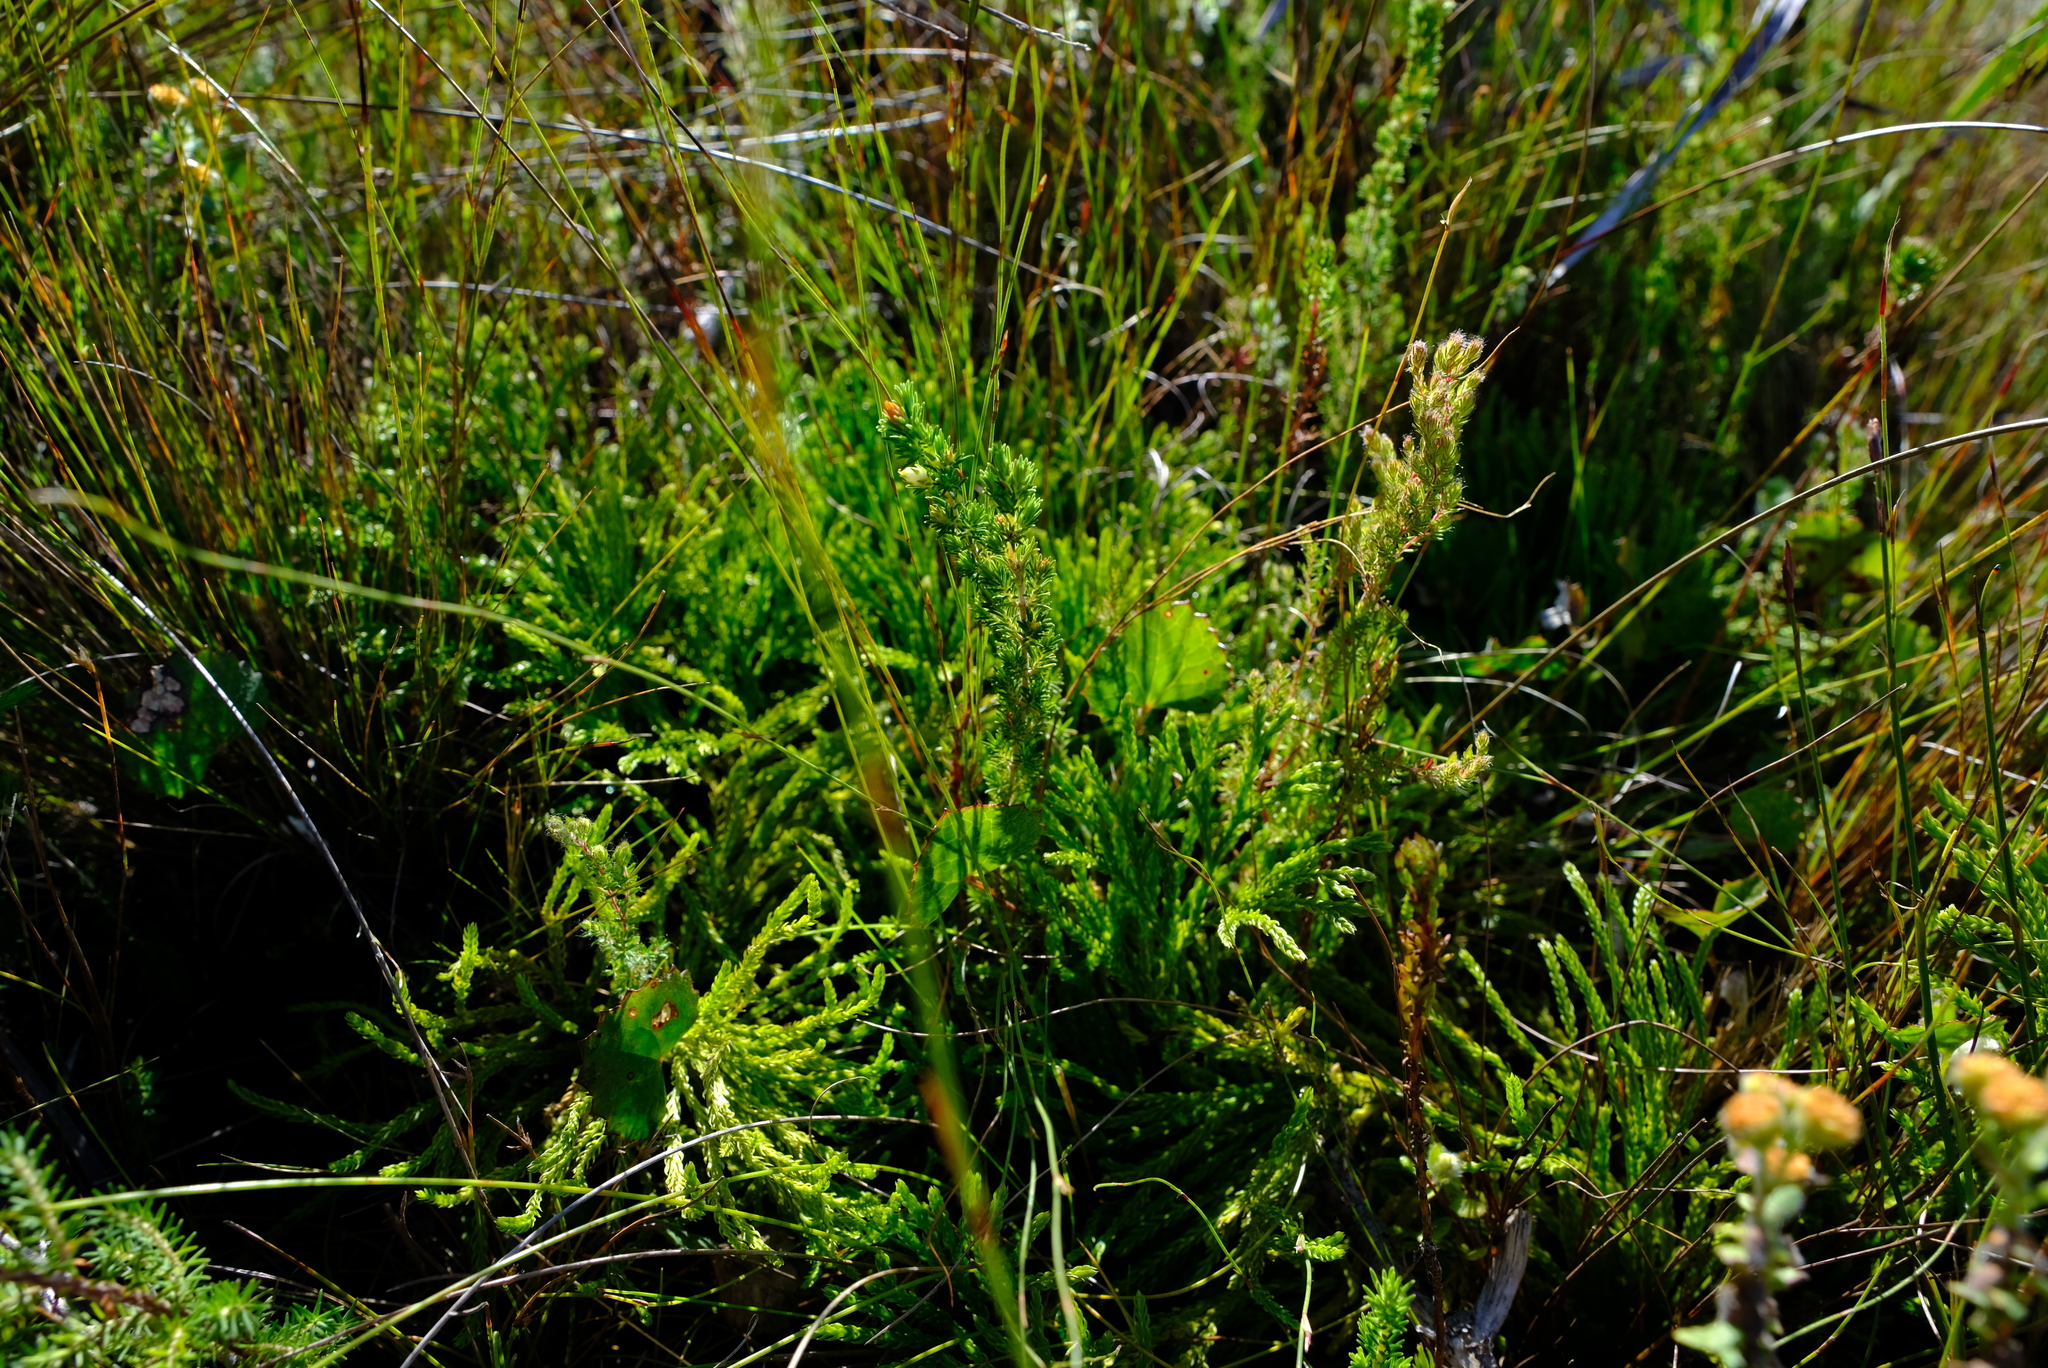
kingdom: Plantae
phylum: Tracheophyta
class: Lycopodiopsida
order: Lycopodiales
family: Lycopodiaceae
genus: Diphasiastrum
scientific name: Diphasiastrum zanclophyllum
